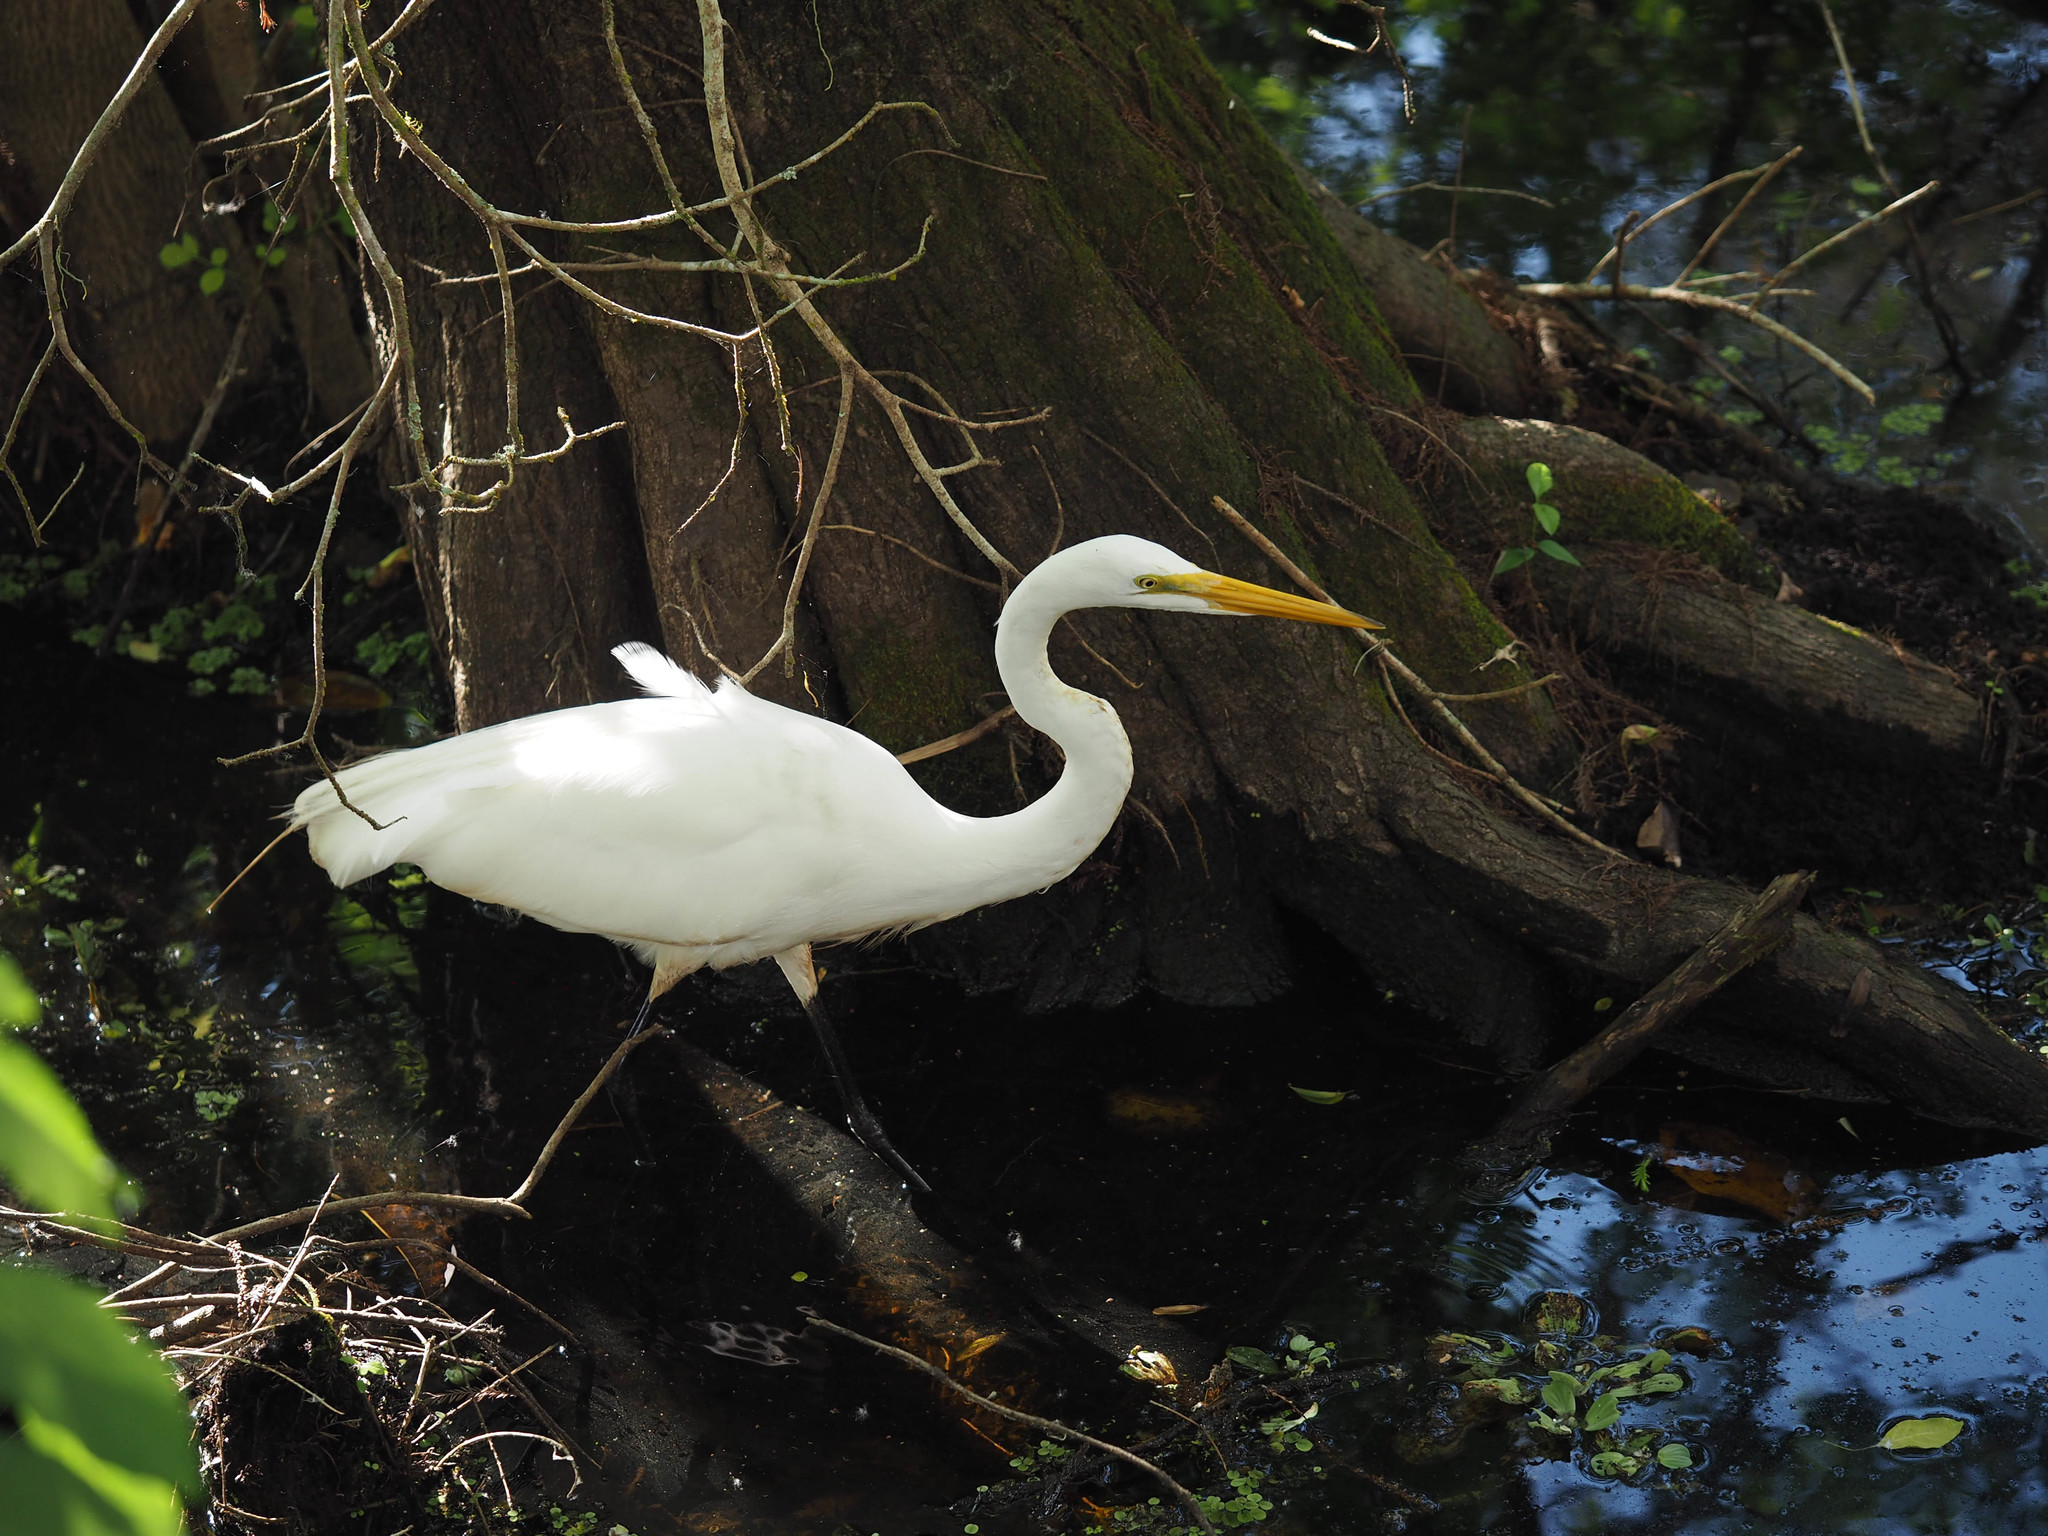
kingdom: Animalia
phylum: Chordata
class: Aves
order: Pelecaniformes
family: Ardeidae
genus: Ardea
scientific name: Ardea alba
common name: Great egret
